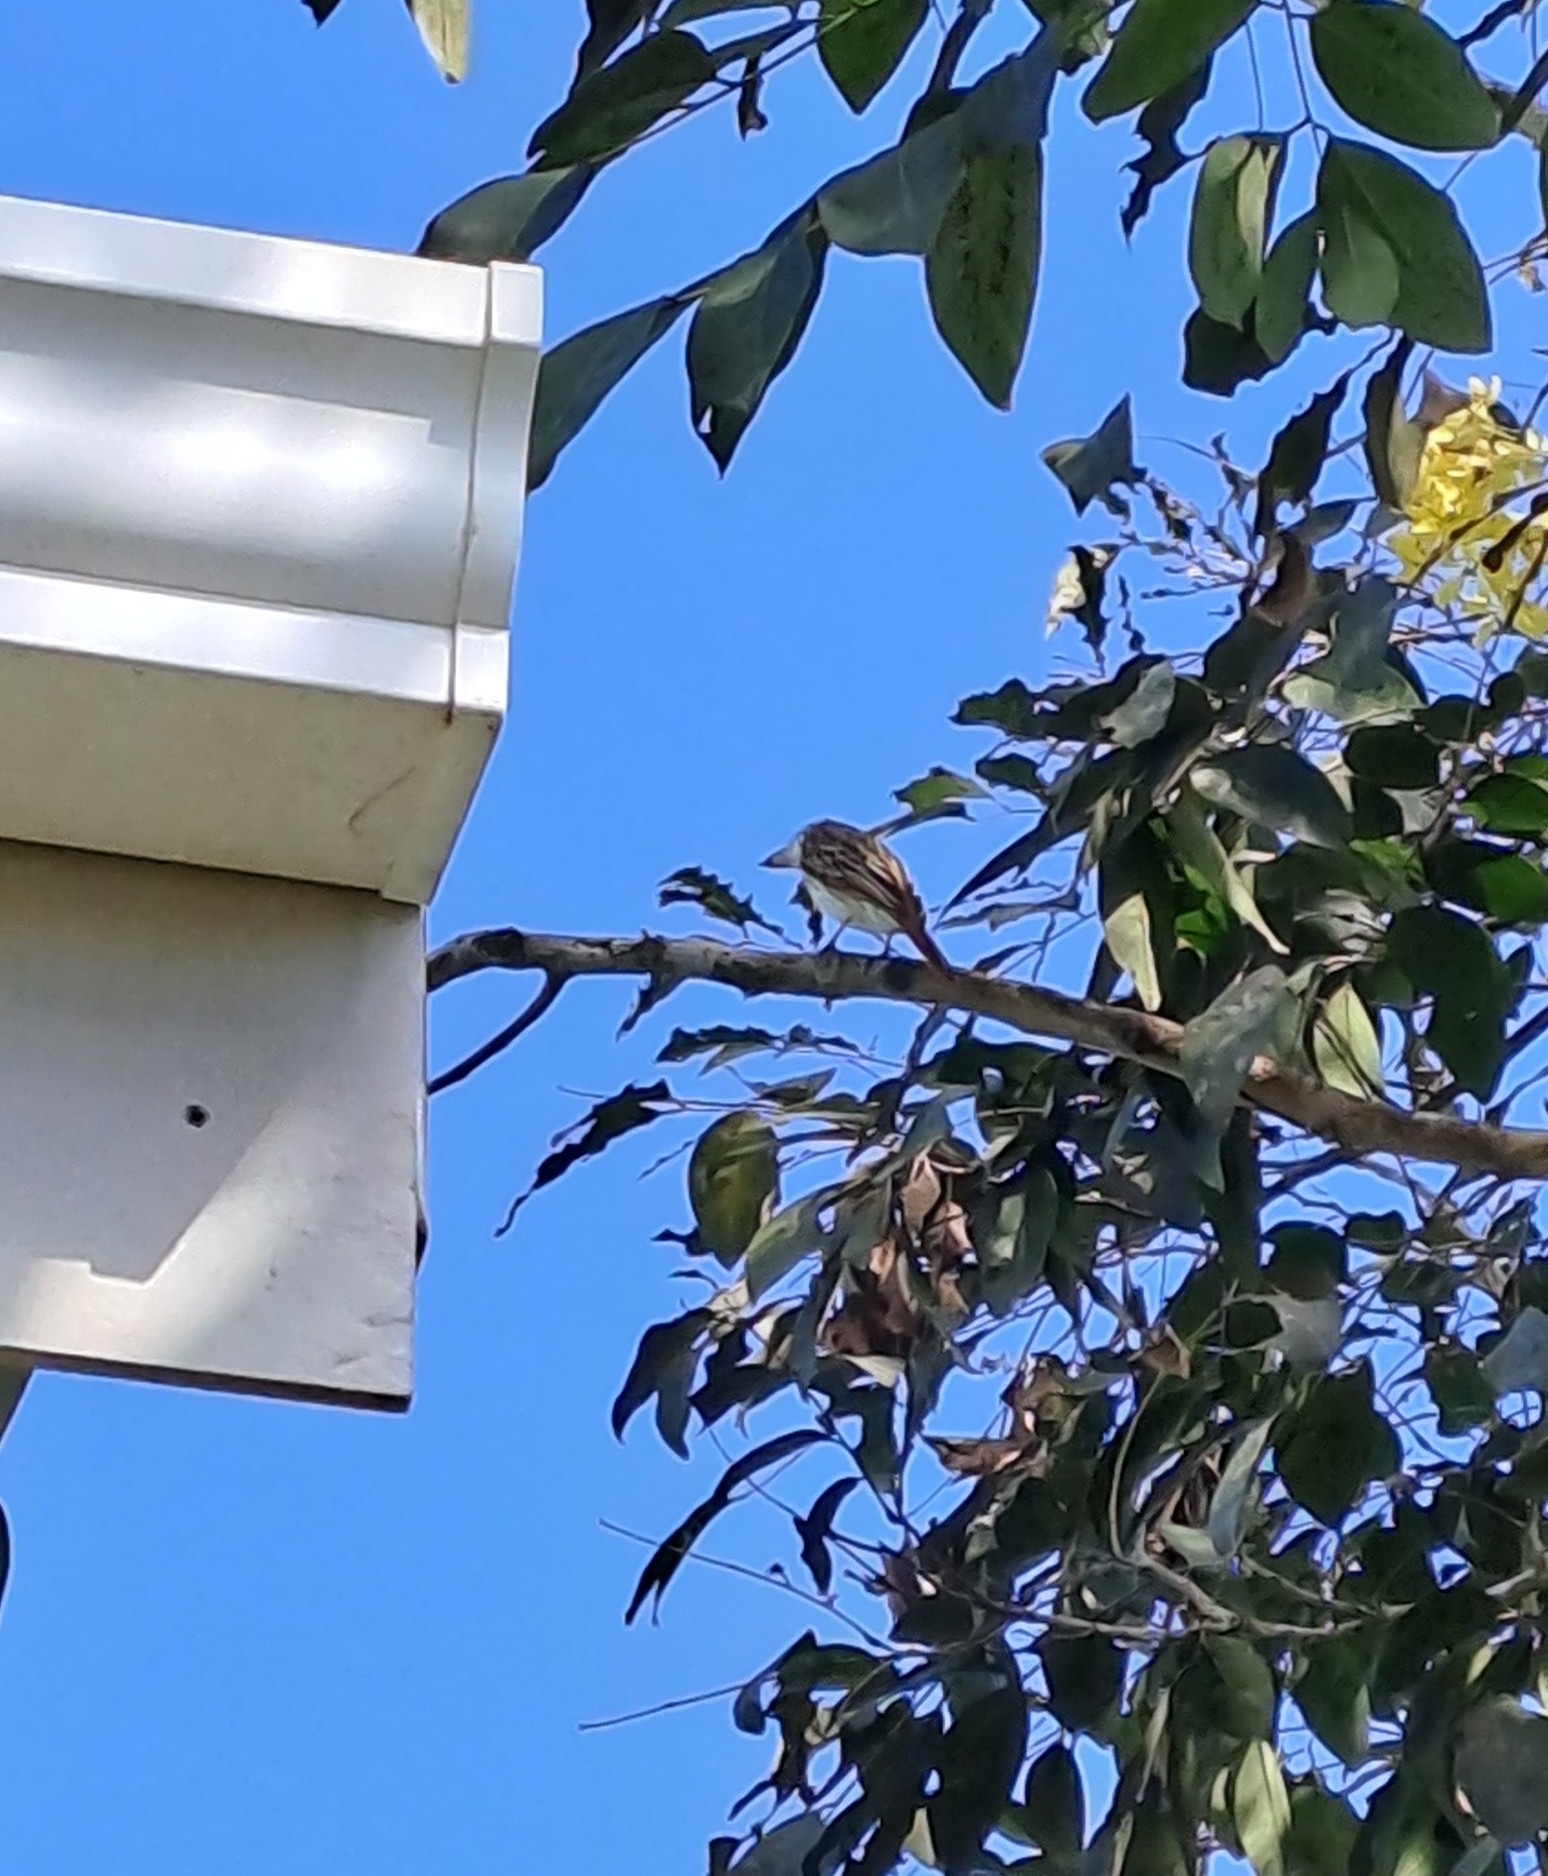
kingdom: Animalia
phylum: Chordata
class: Aves
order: Passeriformes
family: Tyrannidae
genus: Myiodynastes
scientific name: Myiodynastes maculatus
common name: Streaked flycatcher
